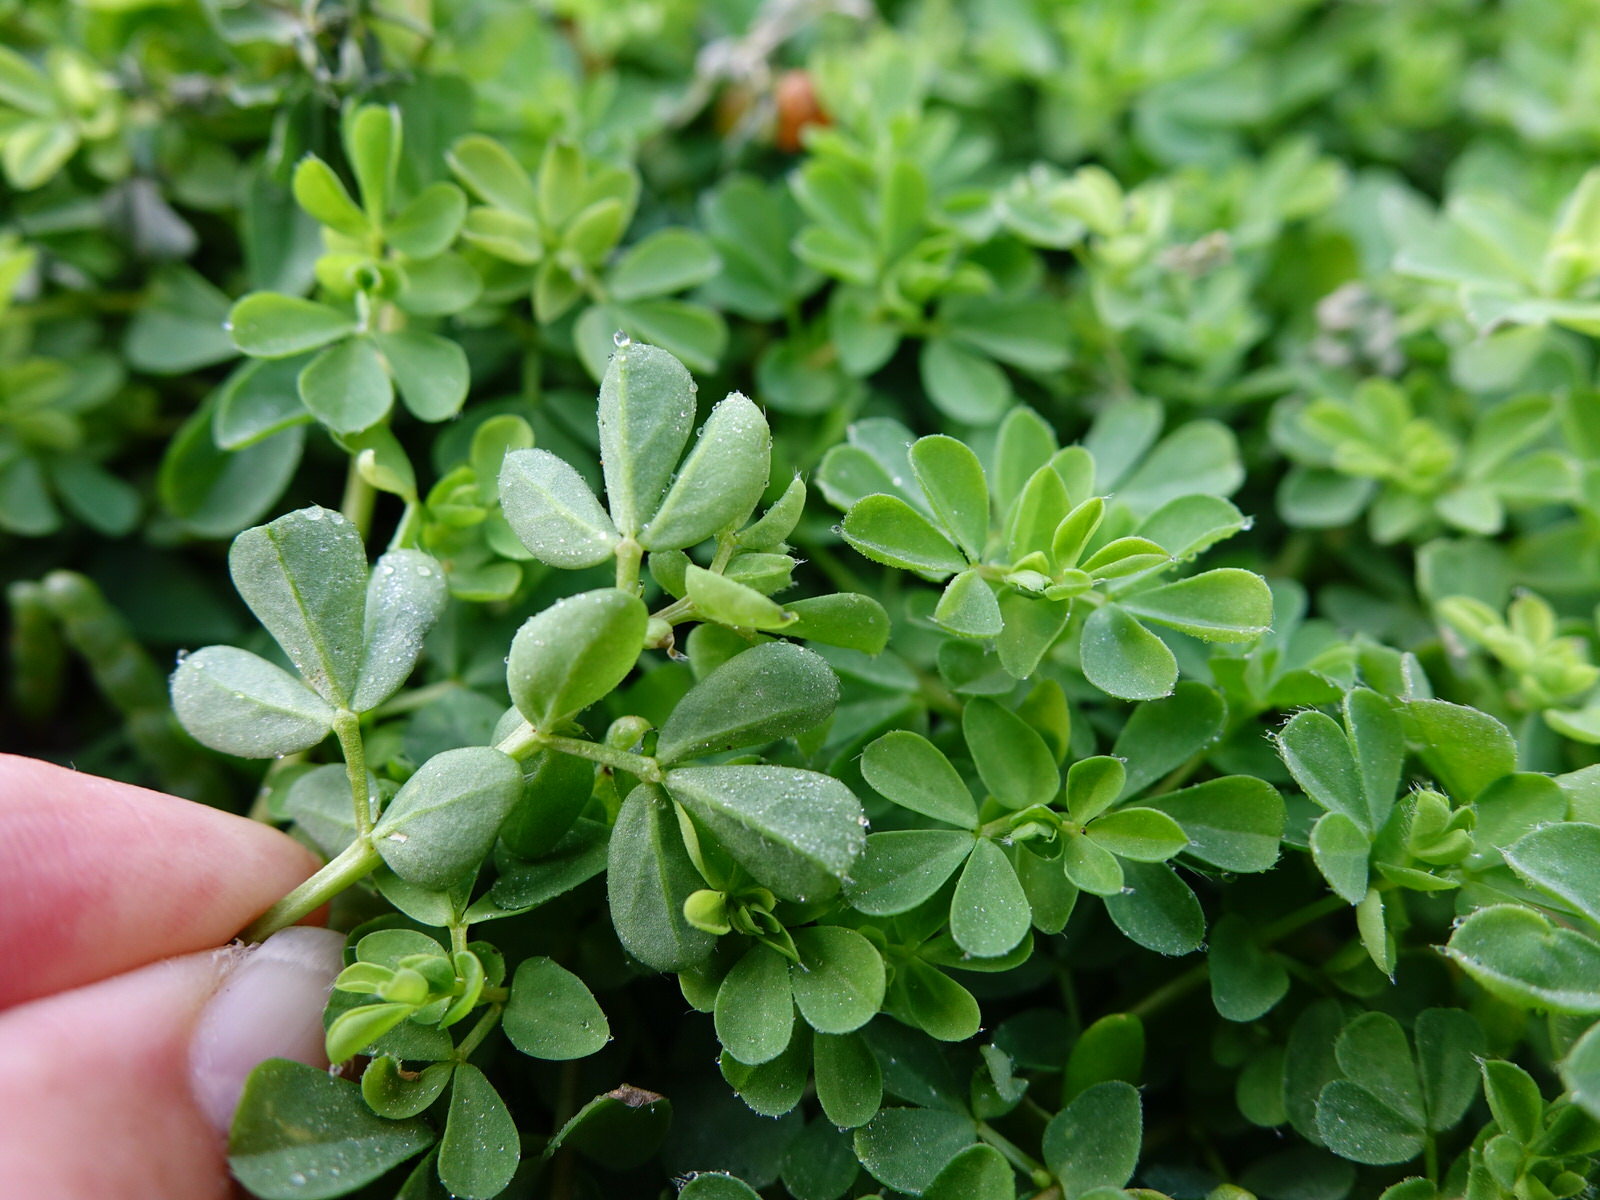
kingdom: Plantae
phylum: Tracheophyta
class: Magnoliopsida
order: Fabales
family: Fabaceae
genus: Lotus
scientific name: Lotus pedunculatus
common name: Greater birdsfoot-trefoil
